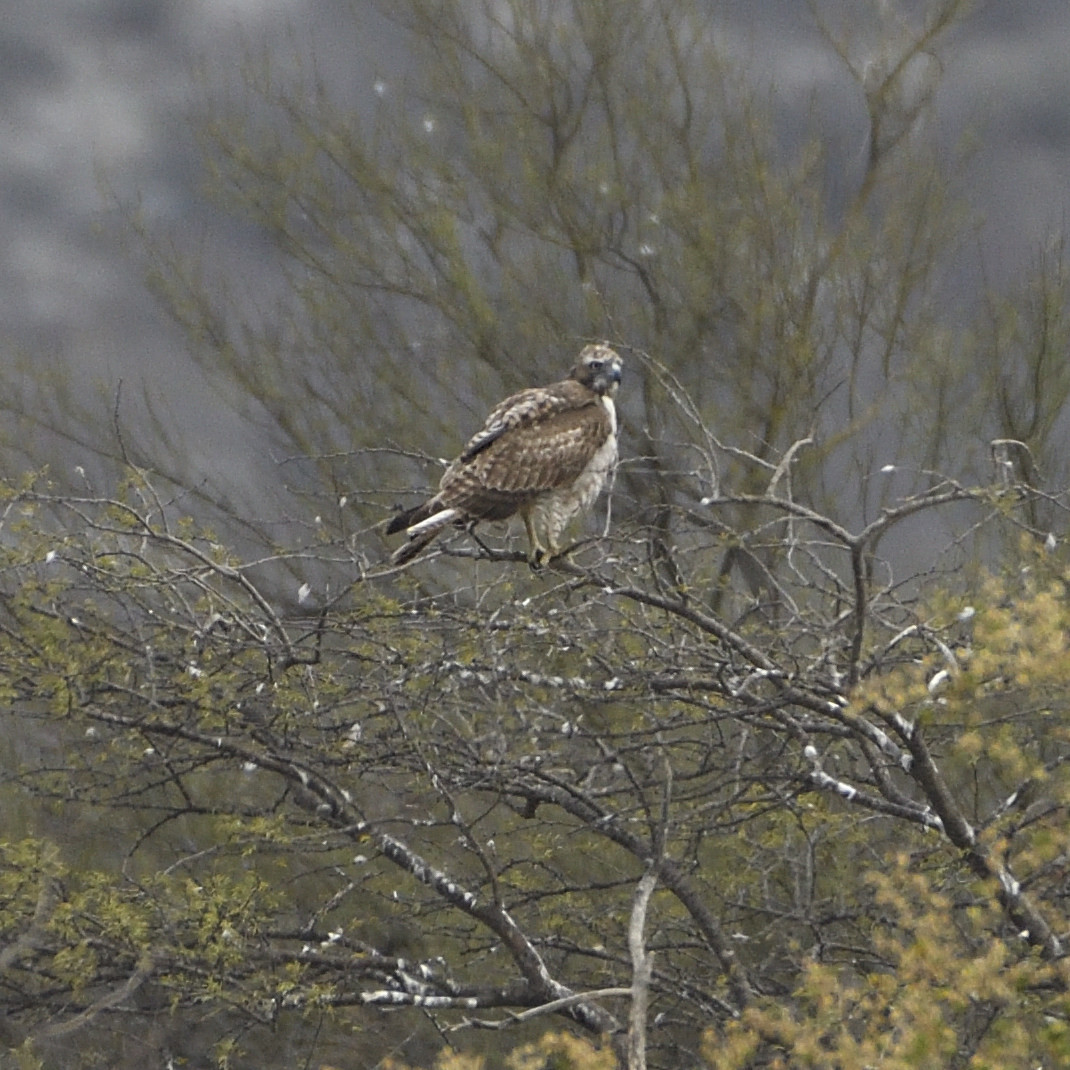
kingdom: Animalia
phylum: Chordata
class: Aves
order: Accipitriformes
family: Accipitridae
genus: Buteo
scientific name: Buteo jamaicensis
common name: Red-tailed hawk
